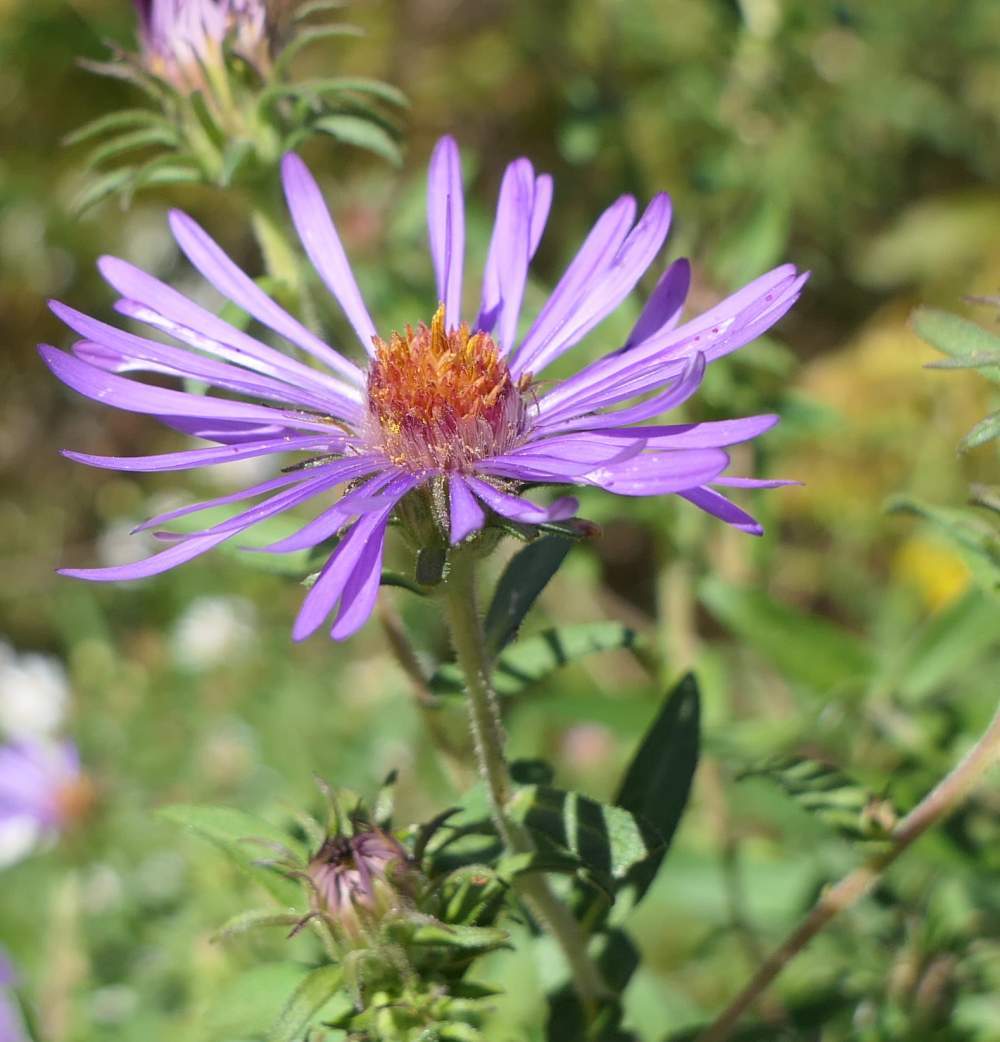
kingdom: Plantae
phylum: Tracheophyta
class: Magnoliopsida
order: Asterales
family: Asteraceae
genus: Symphyotrichum
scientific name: Symphyotrichum novae-angliae
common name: Michaelmas daisy
